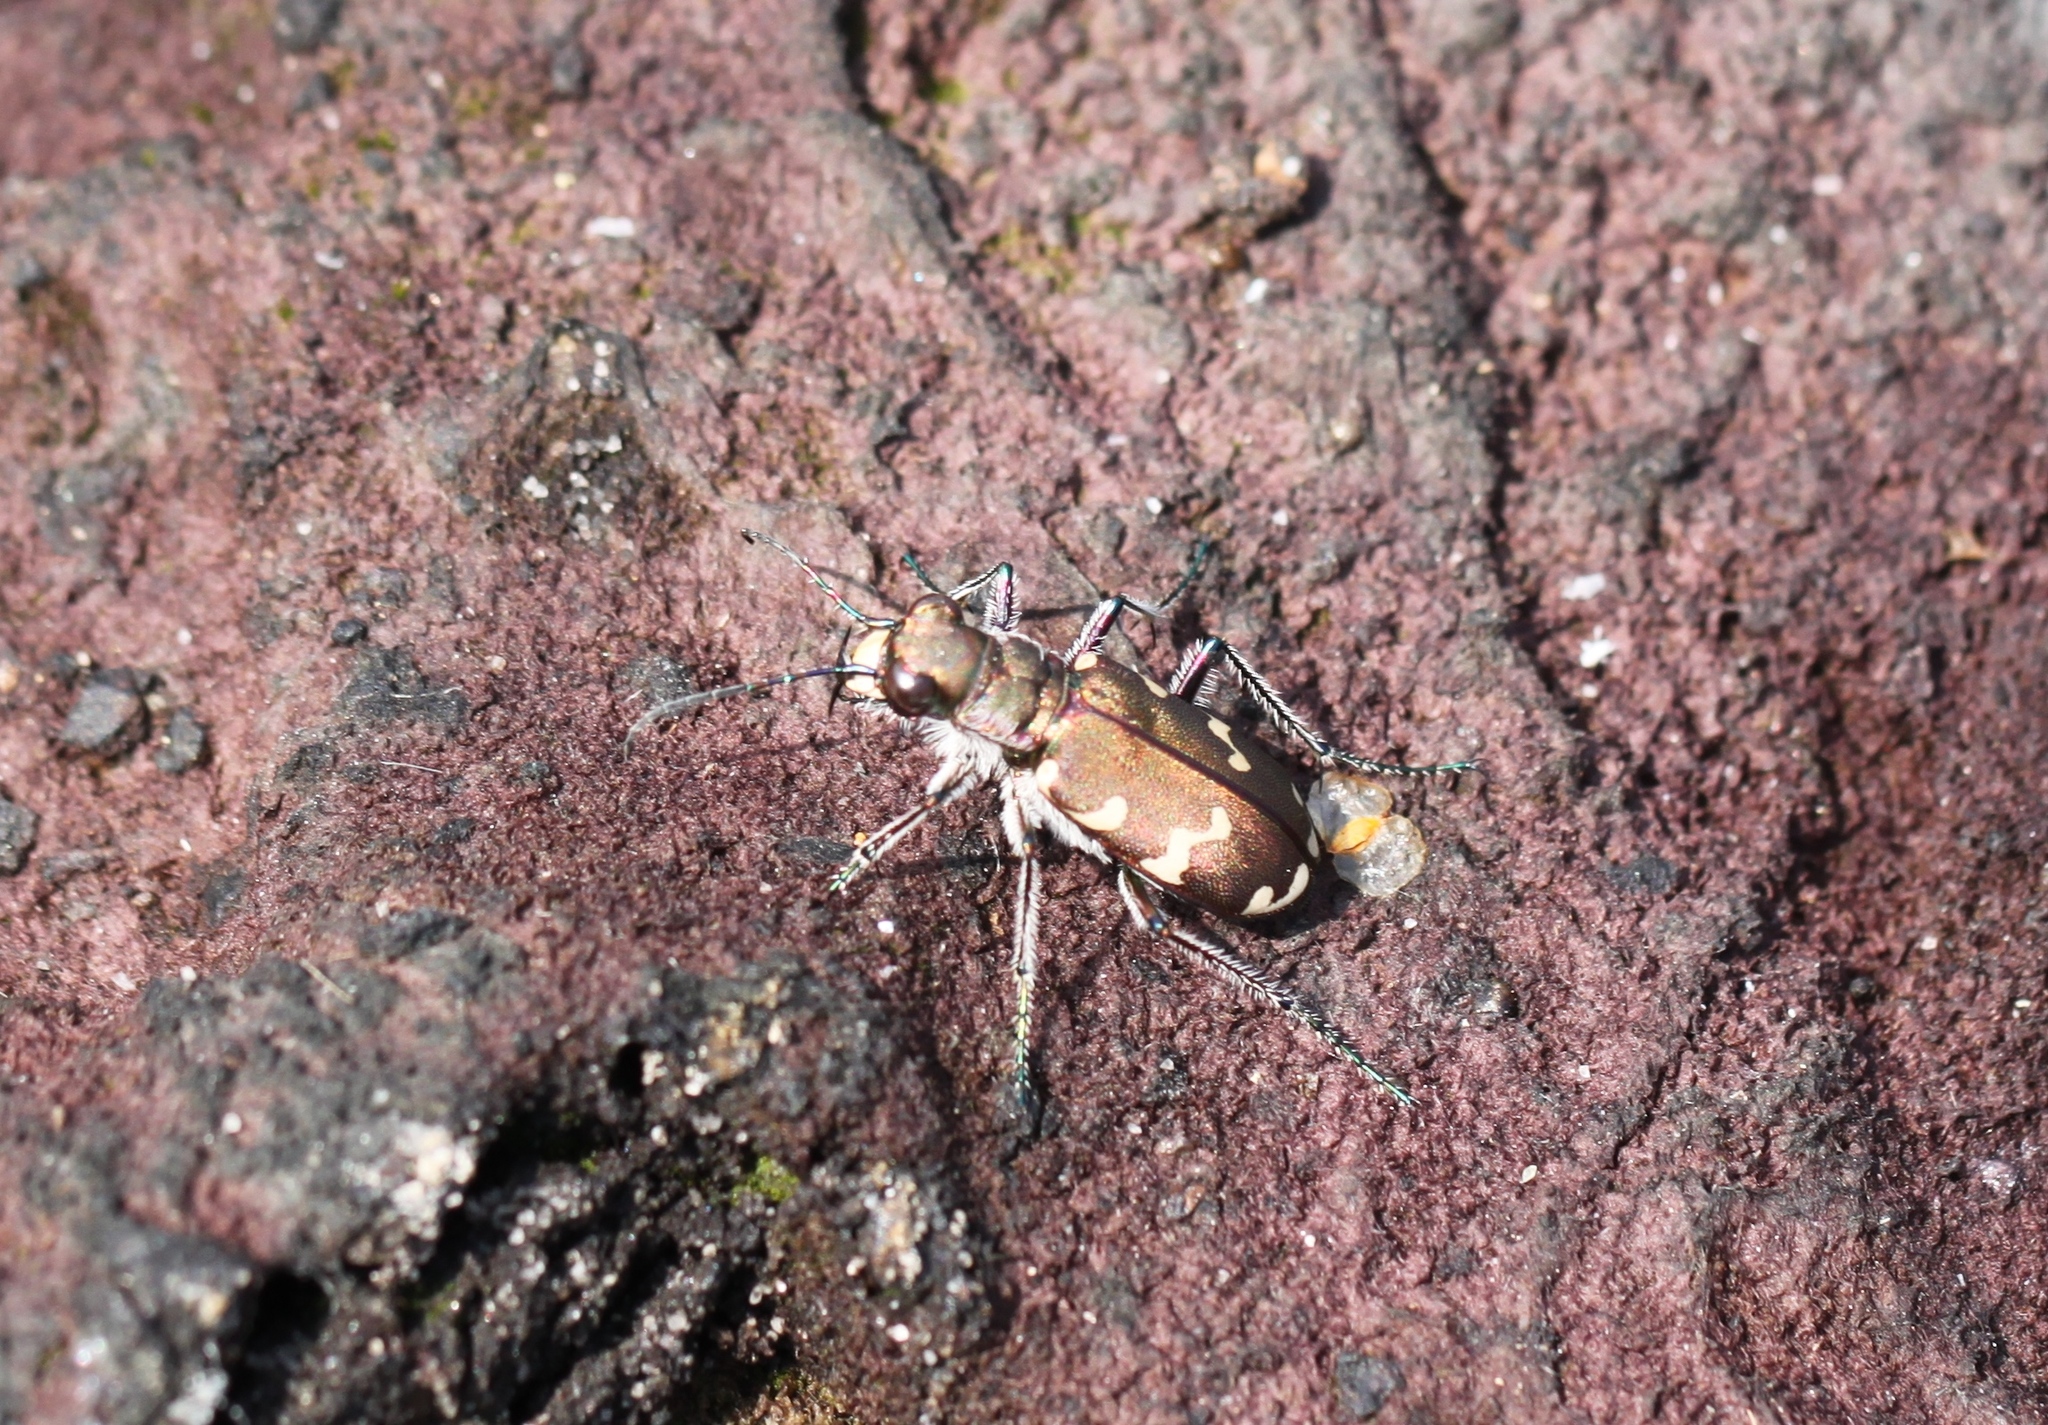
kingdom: Animalia
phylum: Arthropoda
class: Insecta
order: Coleoptera
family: Carabidae
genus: Cicindela
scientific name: Cicindela hybrida
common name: Northern dune tiger beetle
